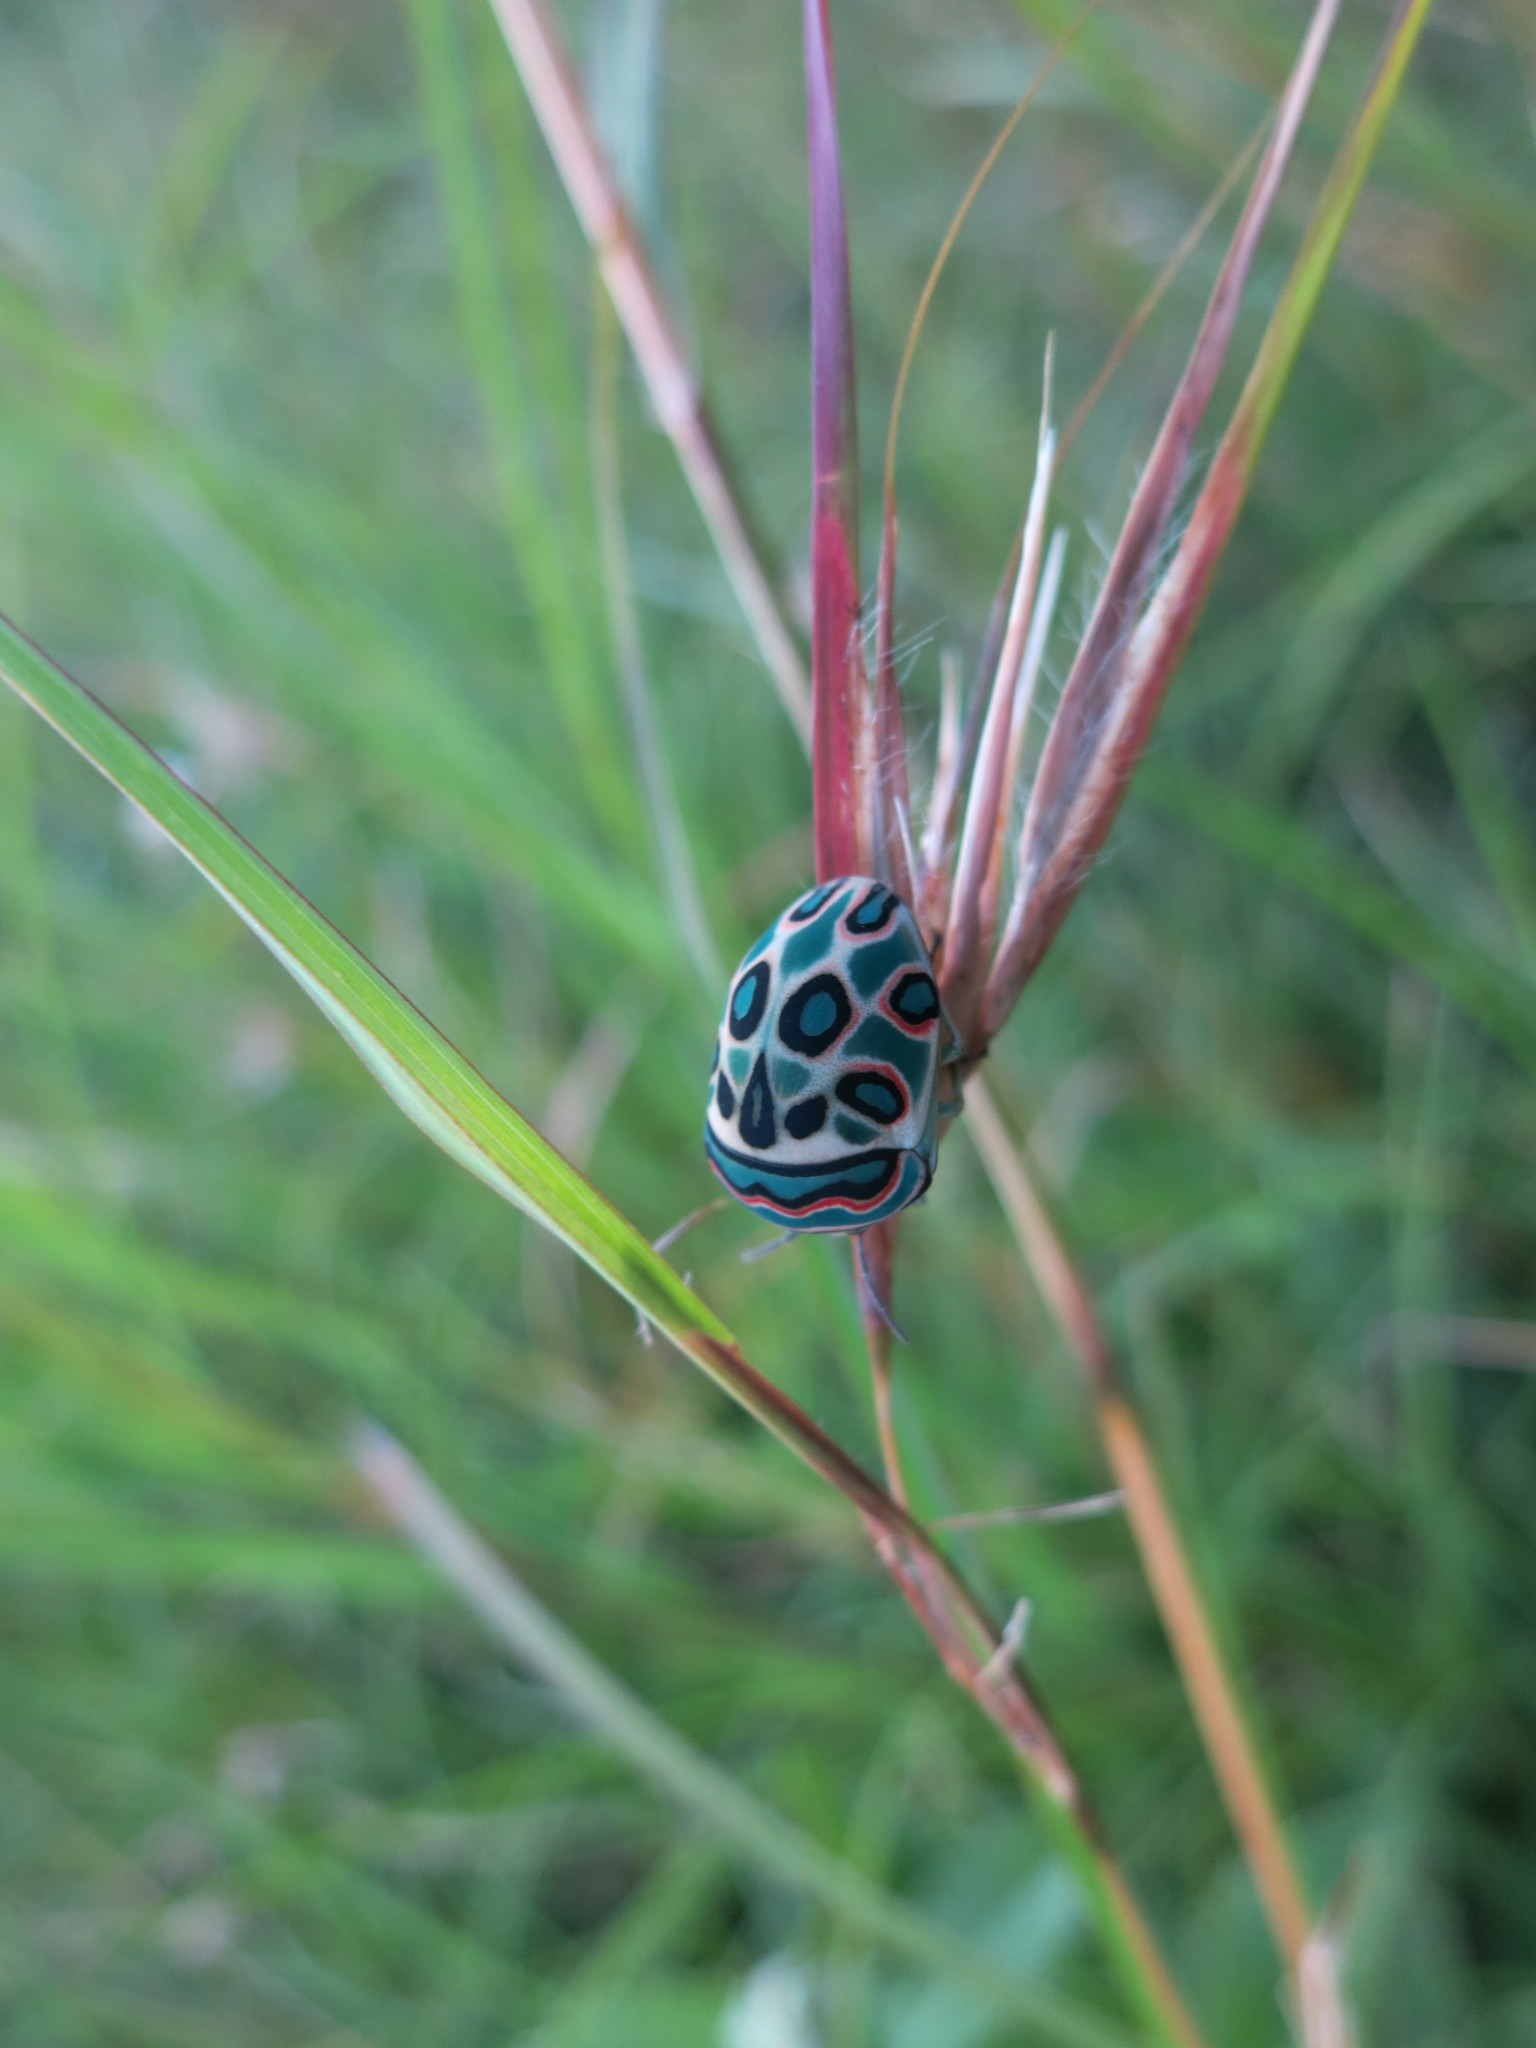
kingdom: Animalia
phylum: Arthropoda
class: Insecta
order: Hemiptera
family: Scutelleridae
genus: Sphaerocoris
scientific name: Sphaerocoris annulus
